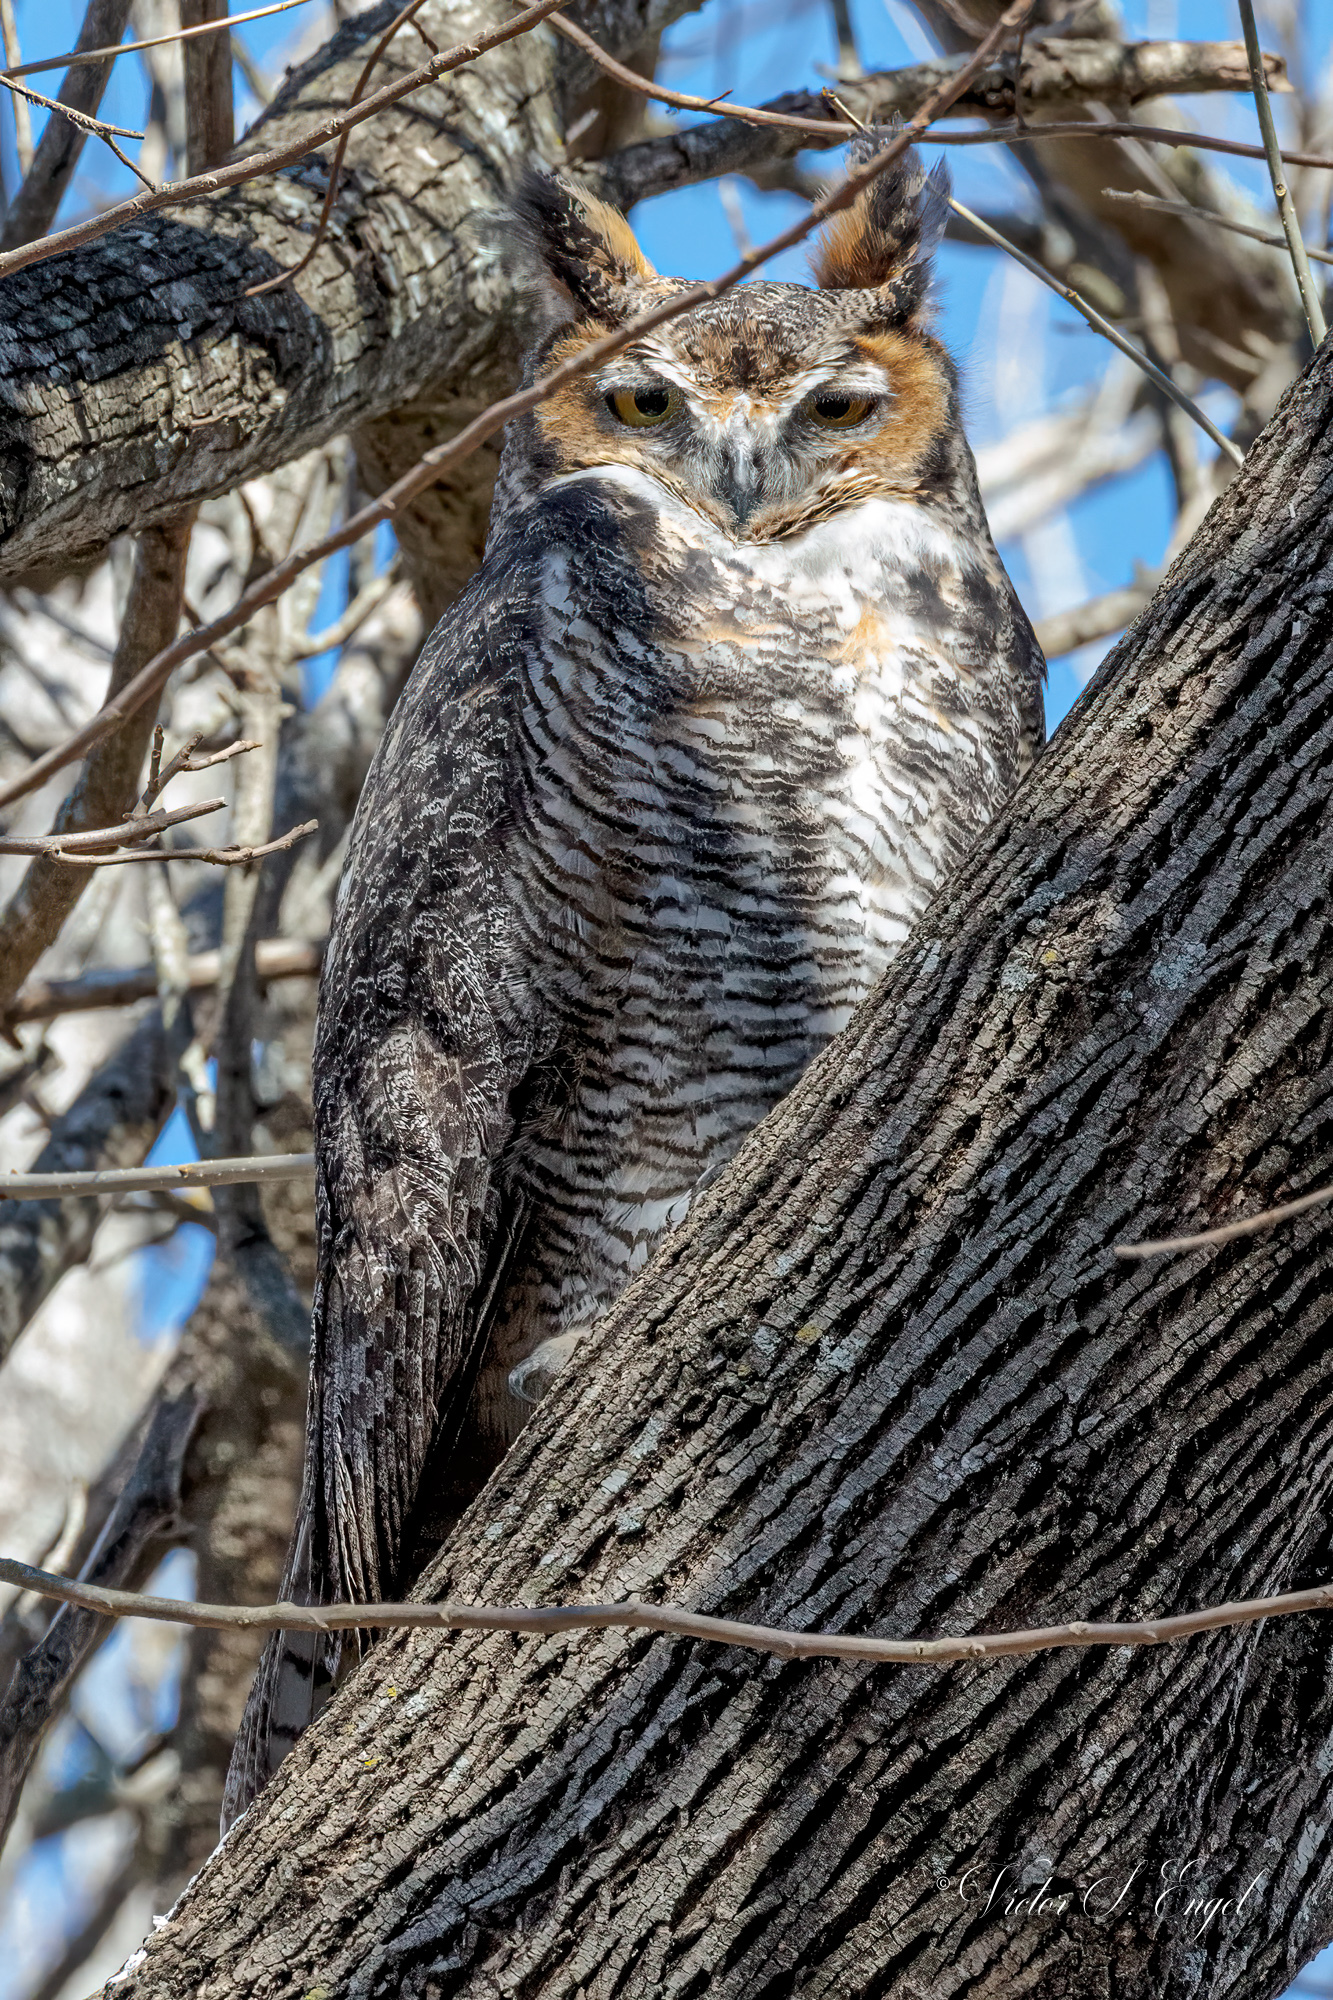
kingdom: Animalia
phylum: Chordata
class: Aves
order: Strigiformes
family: Strigidae
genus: Bubo
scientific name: Bubo virginianus
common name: Great horned owl
